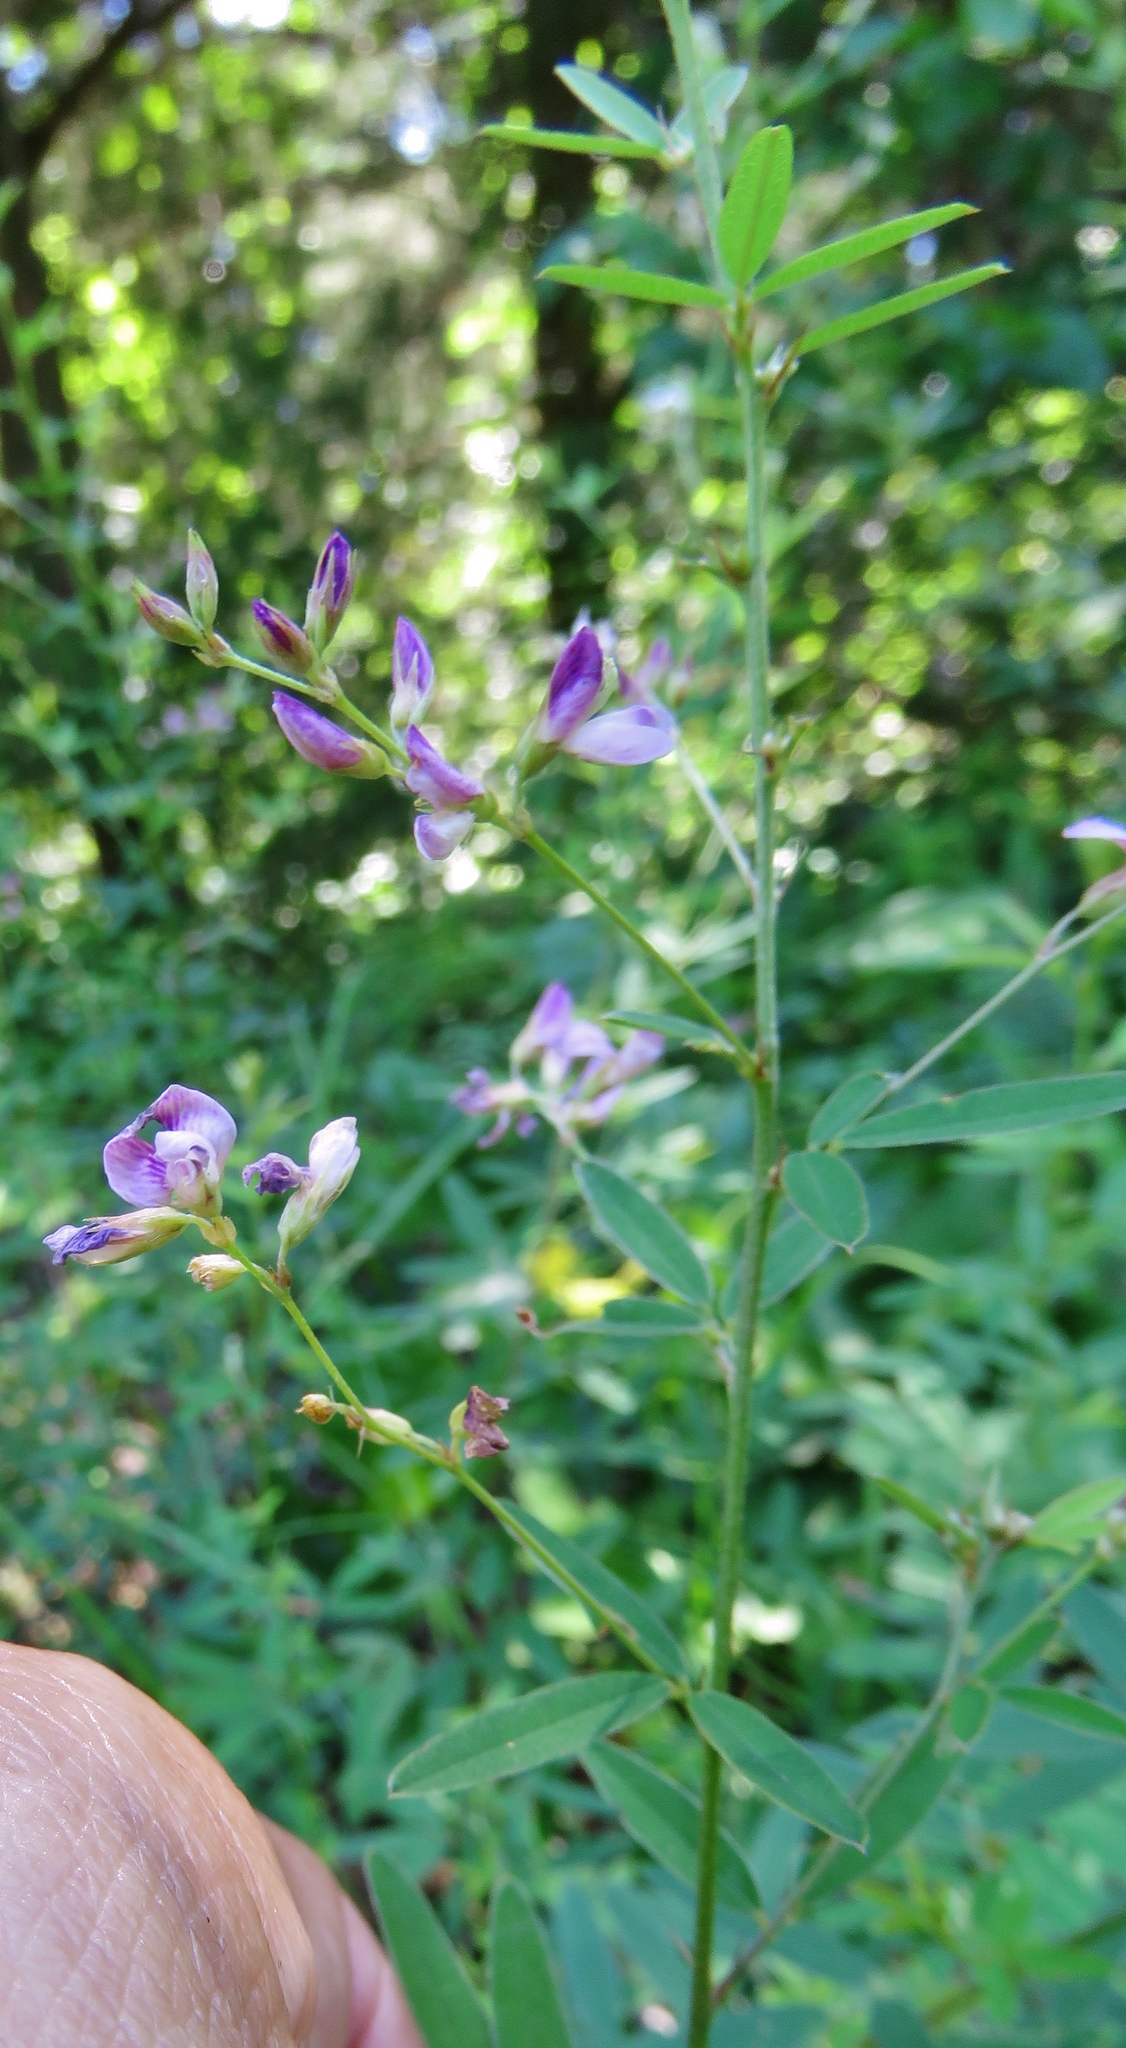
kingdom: Plantae
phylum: Tracheophyta
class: Magnoliopsida
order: Fabales
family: Fabaceae
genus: Orbexilum
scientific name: Orbexilum pedunculatum
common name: Sampson's snakeroot
